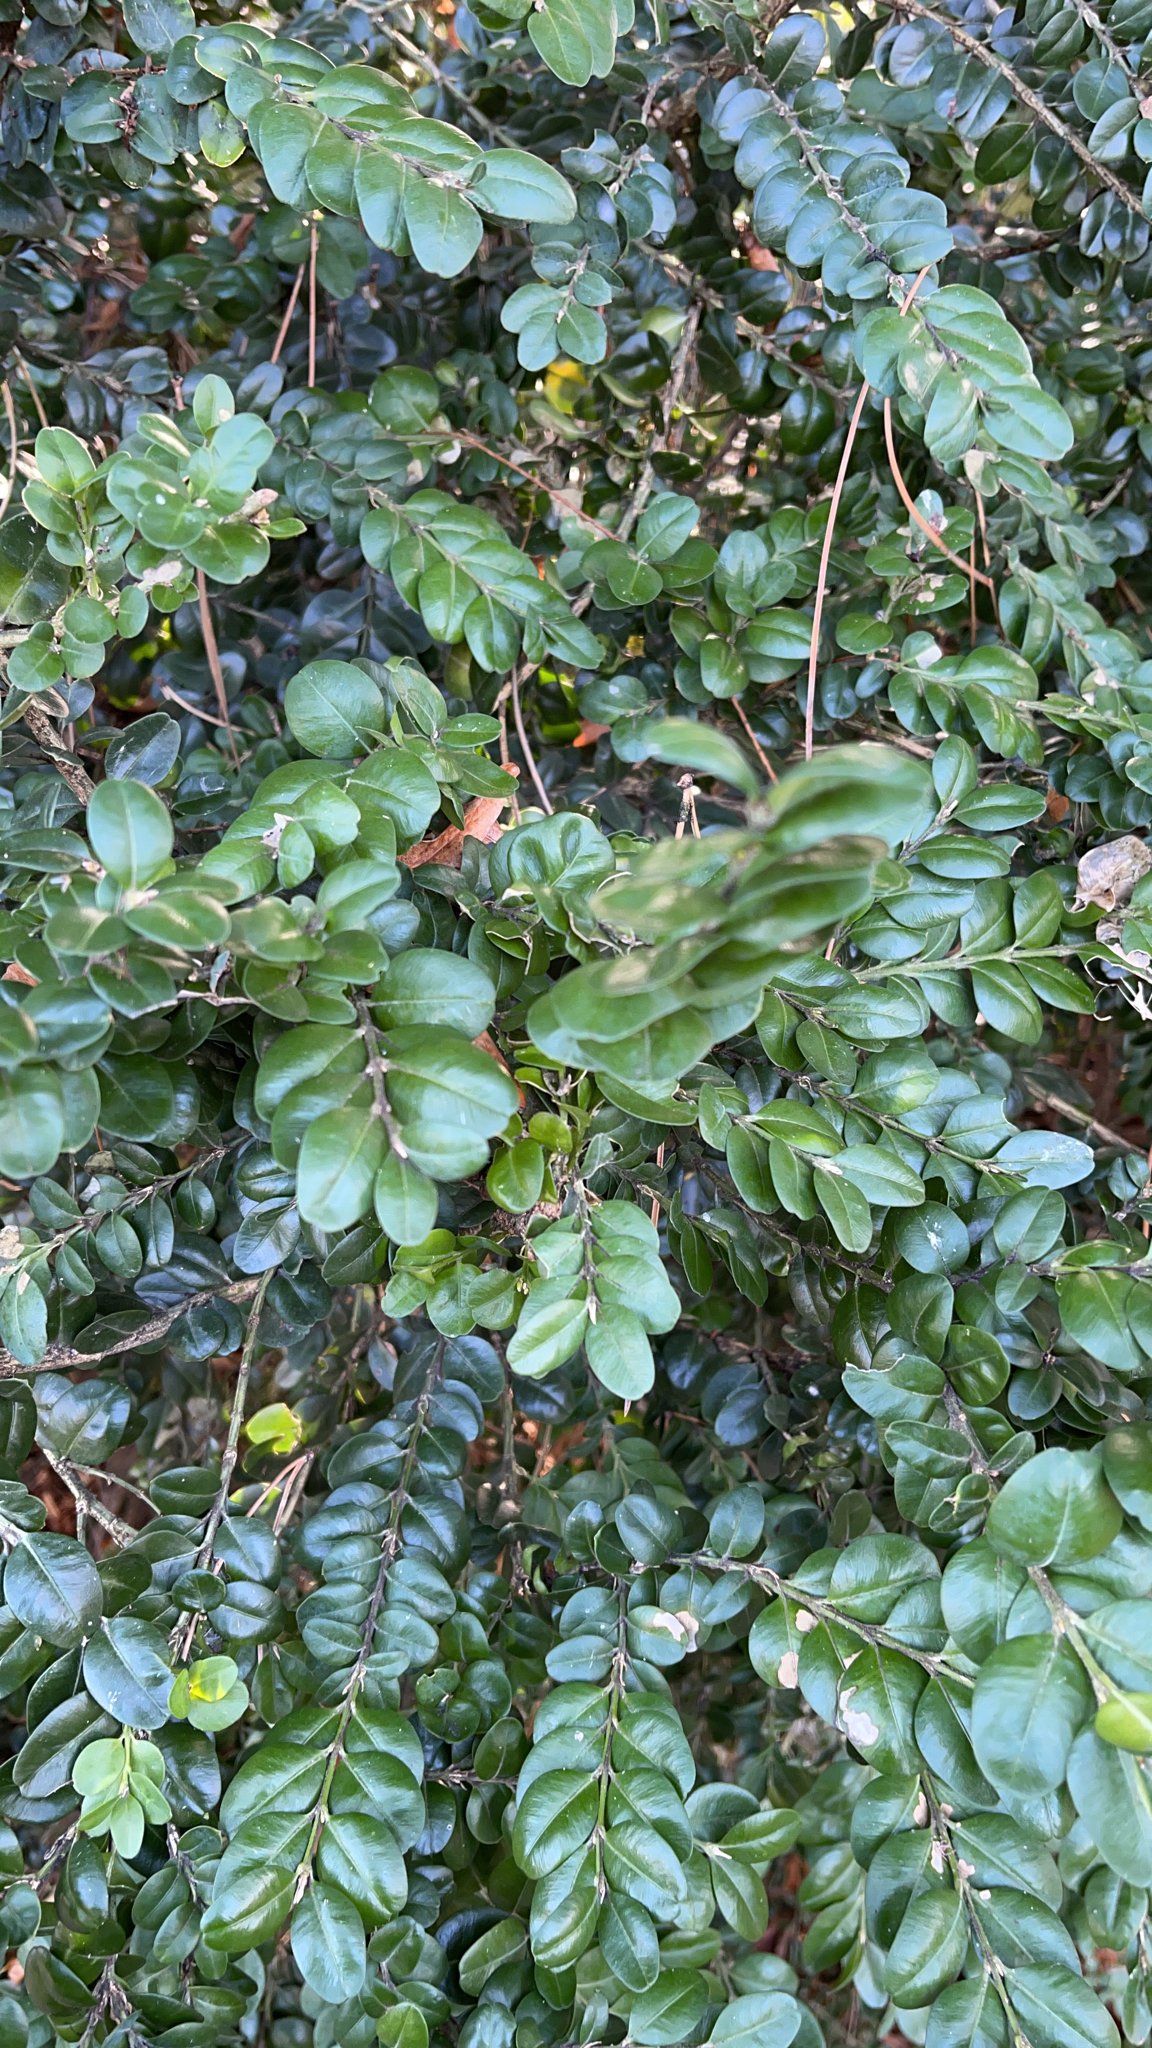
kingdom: Plantae
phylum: Tracheophyta
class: Magnoliopsida
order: Buxales
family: Buxaceae
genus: Buxus
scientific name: Buxus sempervirens
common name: Box
